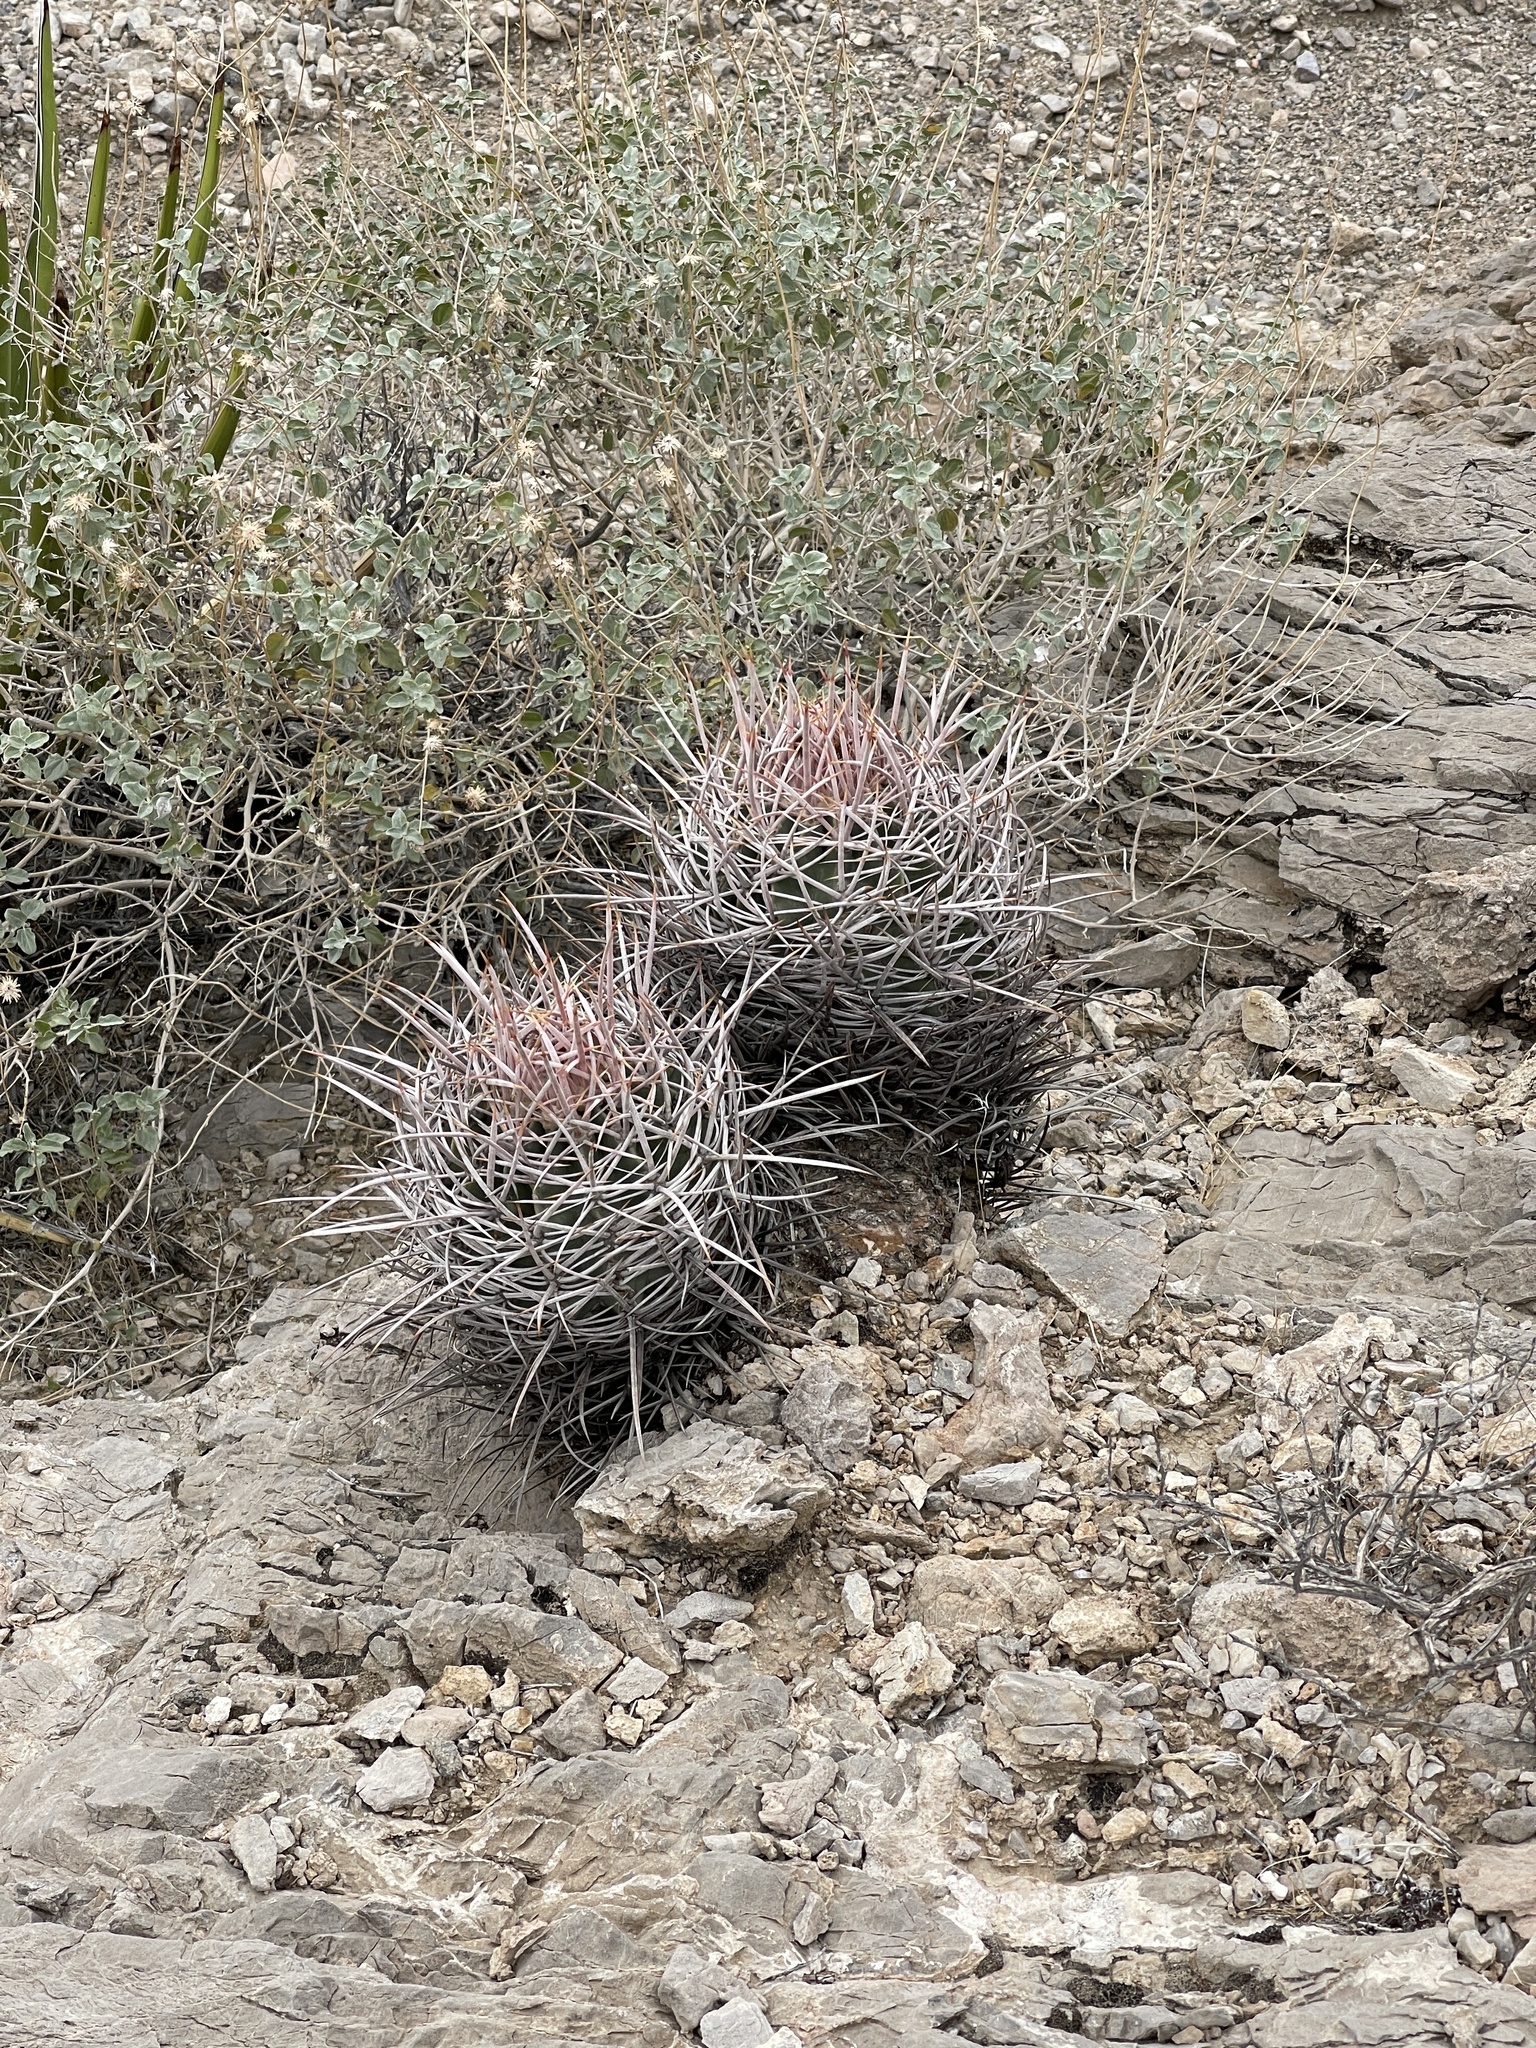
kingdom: Plantae
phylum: Tracheophyta
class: Magnoliopsida
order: Caryophyllales
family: Cactaceae
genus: Echinocactus
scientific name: Echinocactus polycephalus
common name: Cottontop cactus
